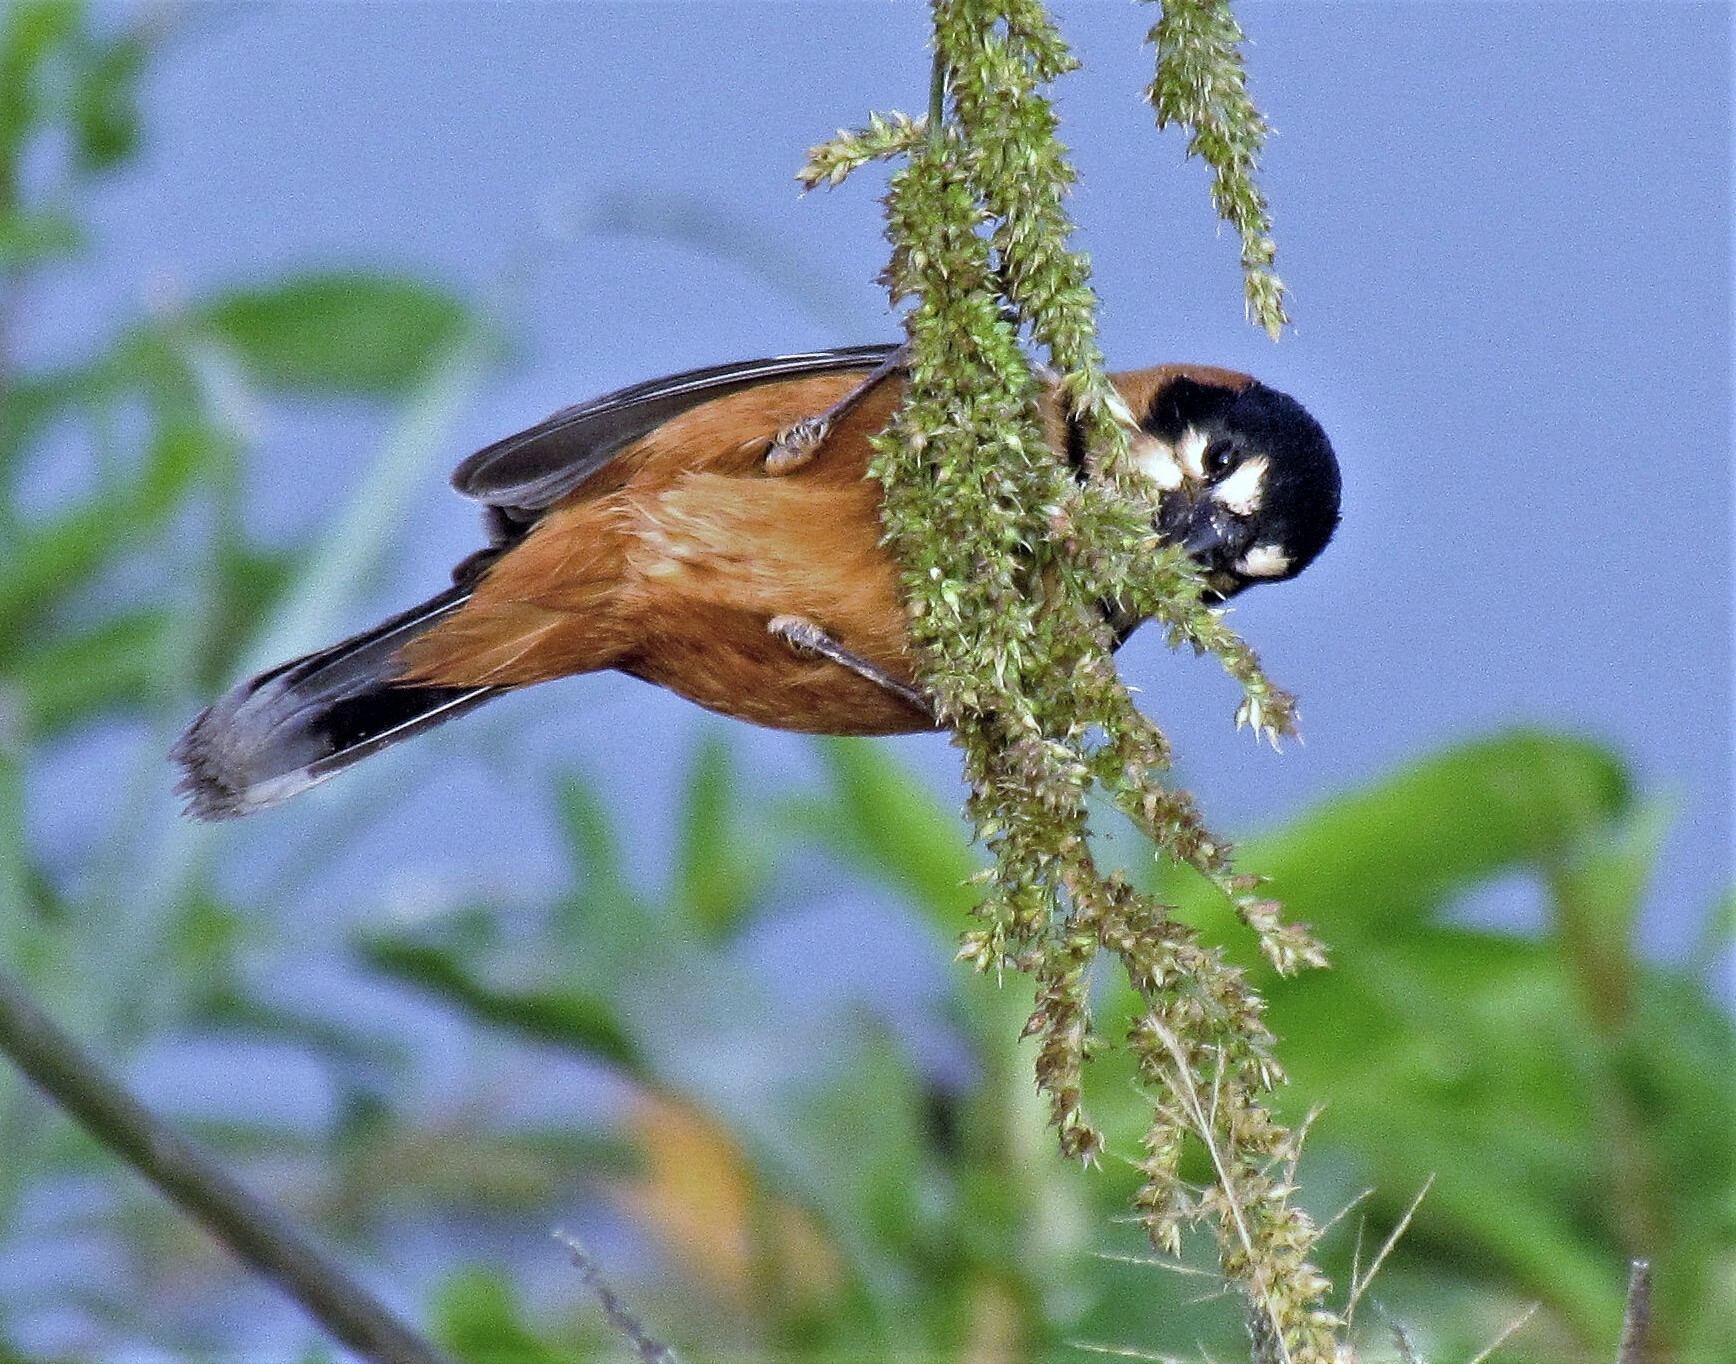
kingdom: Animalia
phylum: Chordata
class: Aves
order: Passeriformes
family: Thraupidae
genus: Sporophila
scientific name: Sporophila collaris
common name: Rusty-collared seedeater
